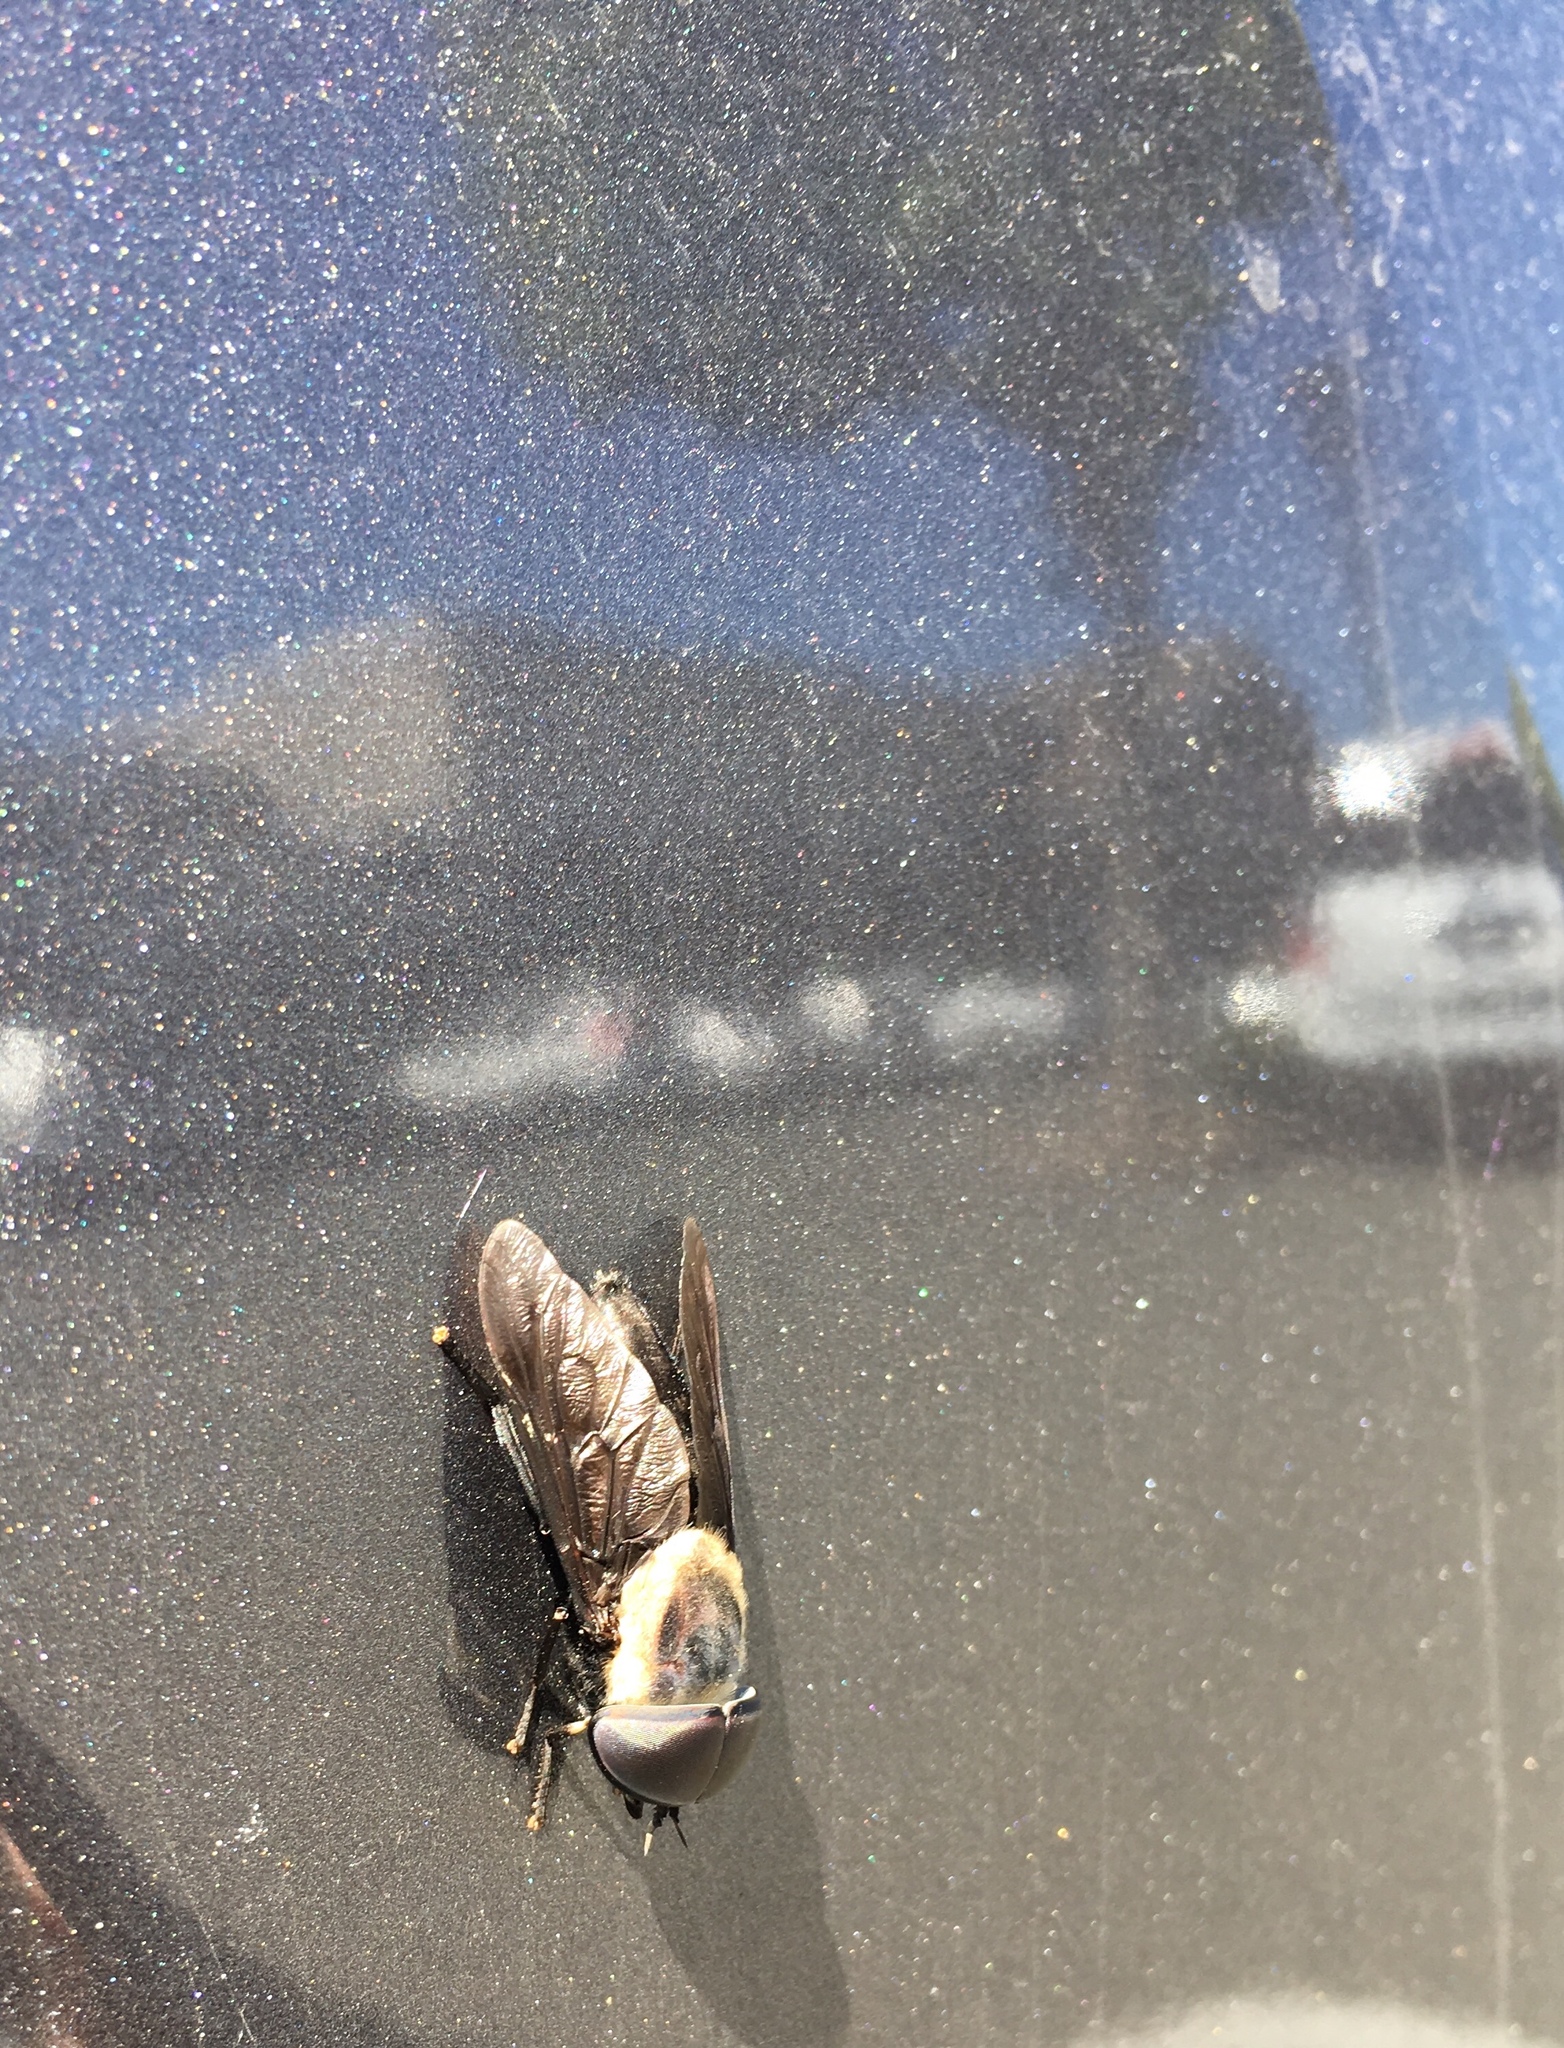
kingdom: Animalia
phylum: Arthropoda
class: Insecta
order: Diptera
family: Tabanidae
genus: Tabanus
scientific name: Tabanus punctifer
